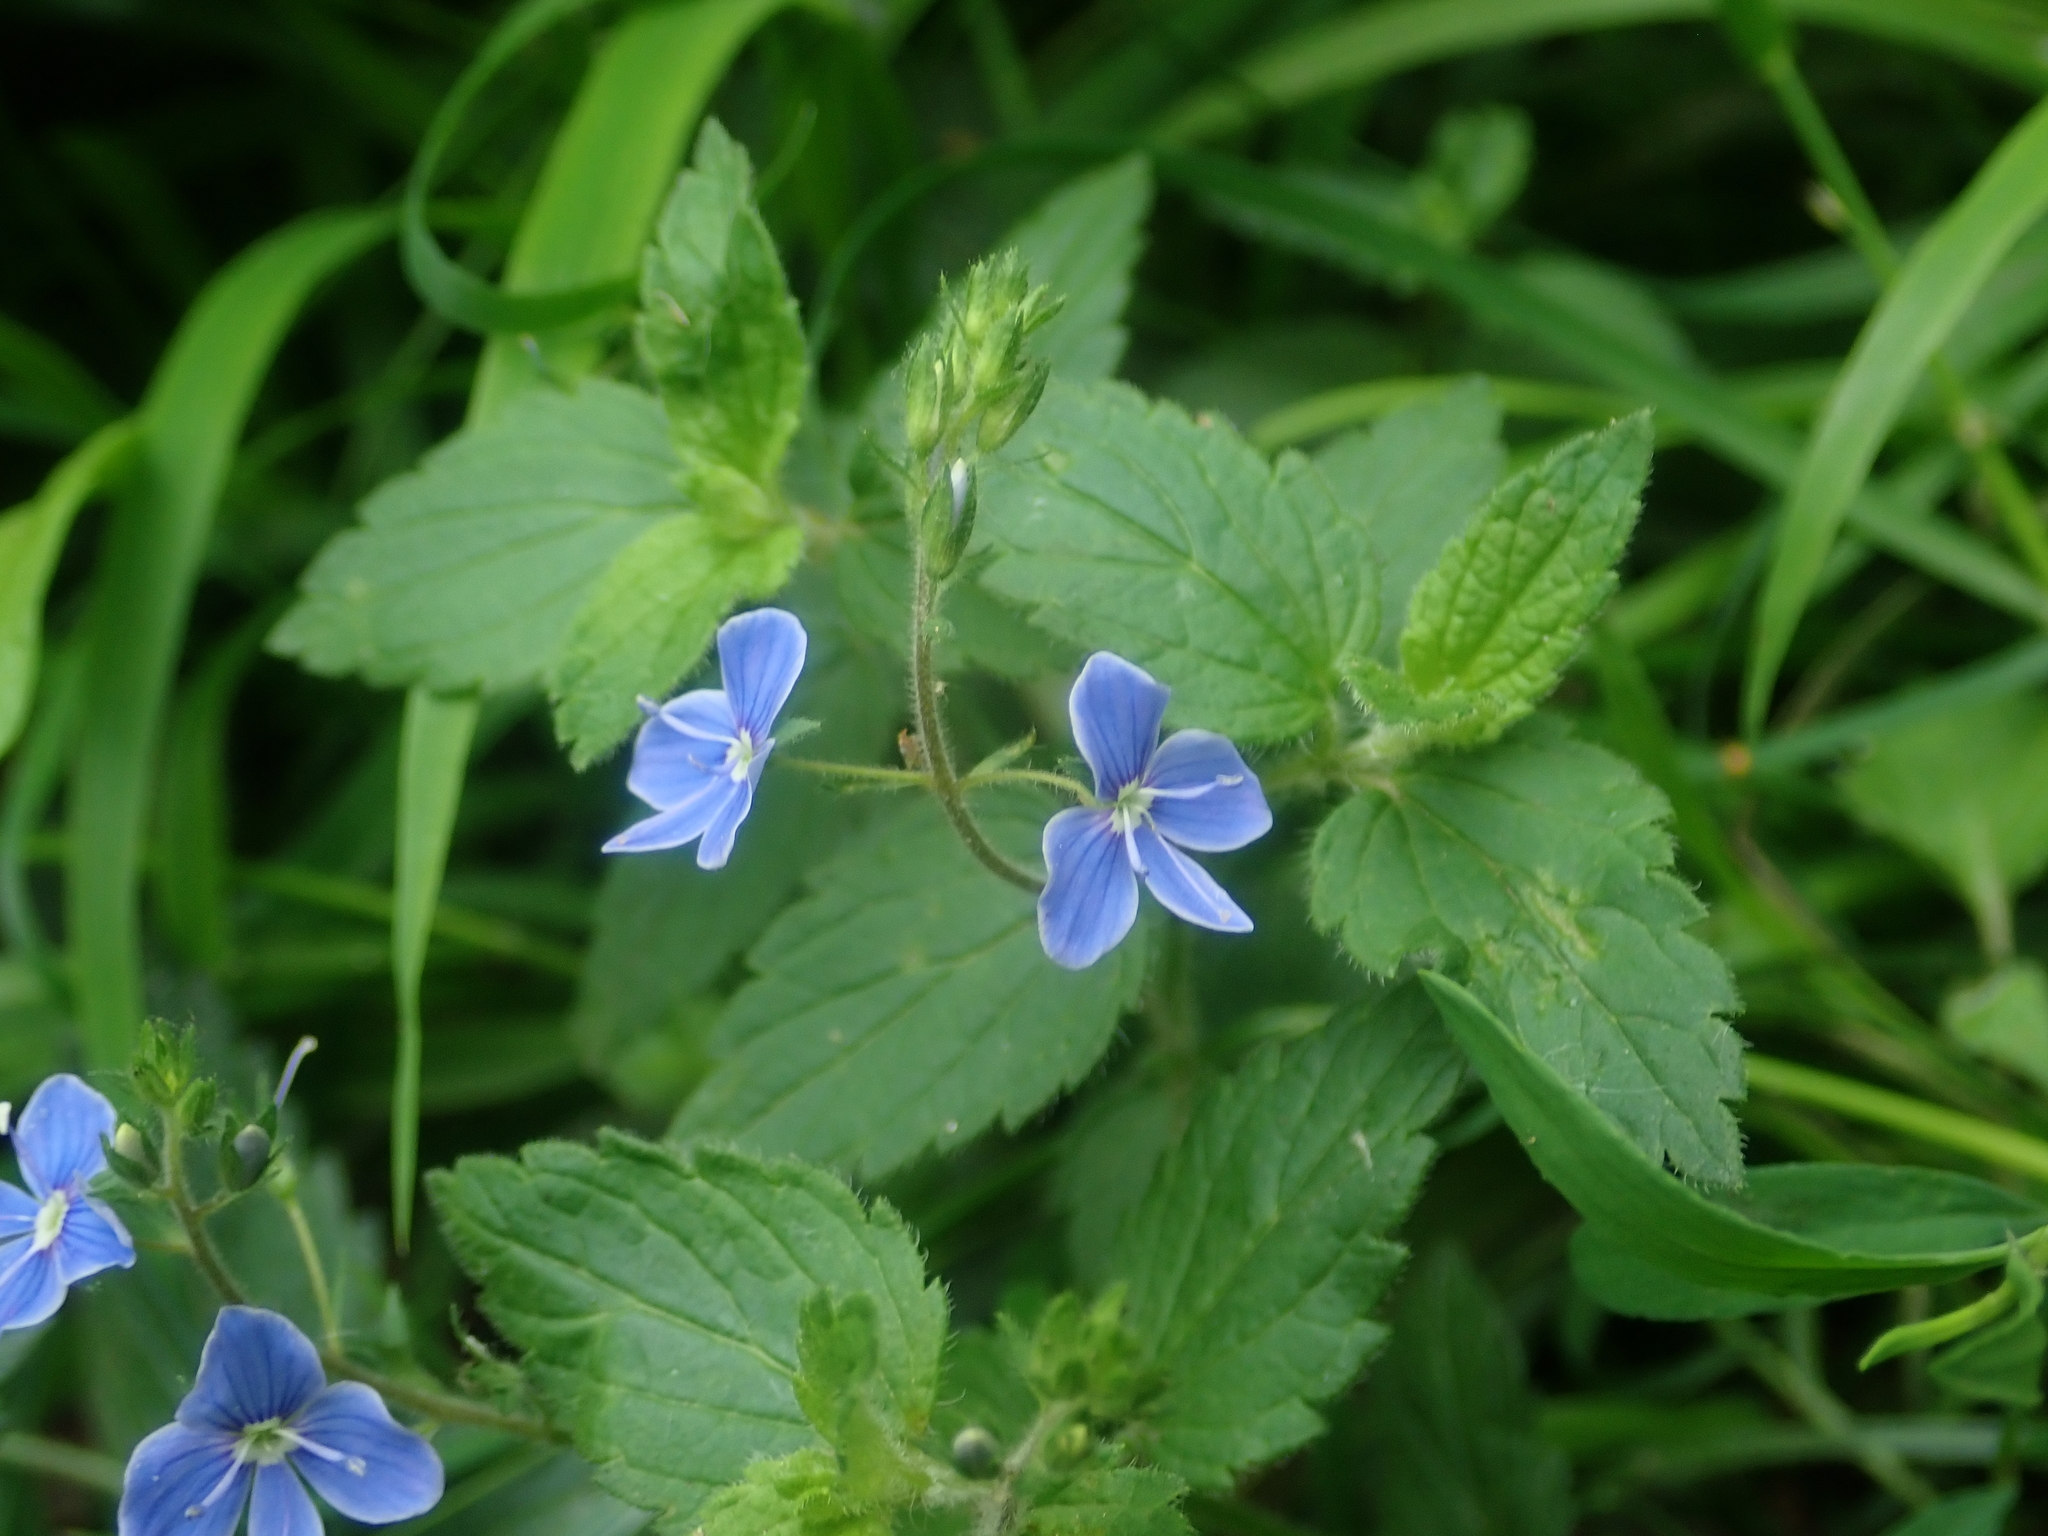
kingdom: Plantae
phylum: Tracheophyta
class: Magnoliopsida
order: Lamiales
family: Plantaginaceae
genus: Veronica
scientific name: Veronica chamaedrys
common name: Germander speedwell
